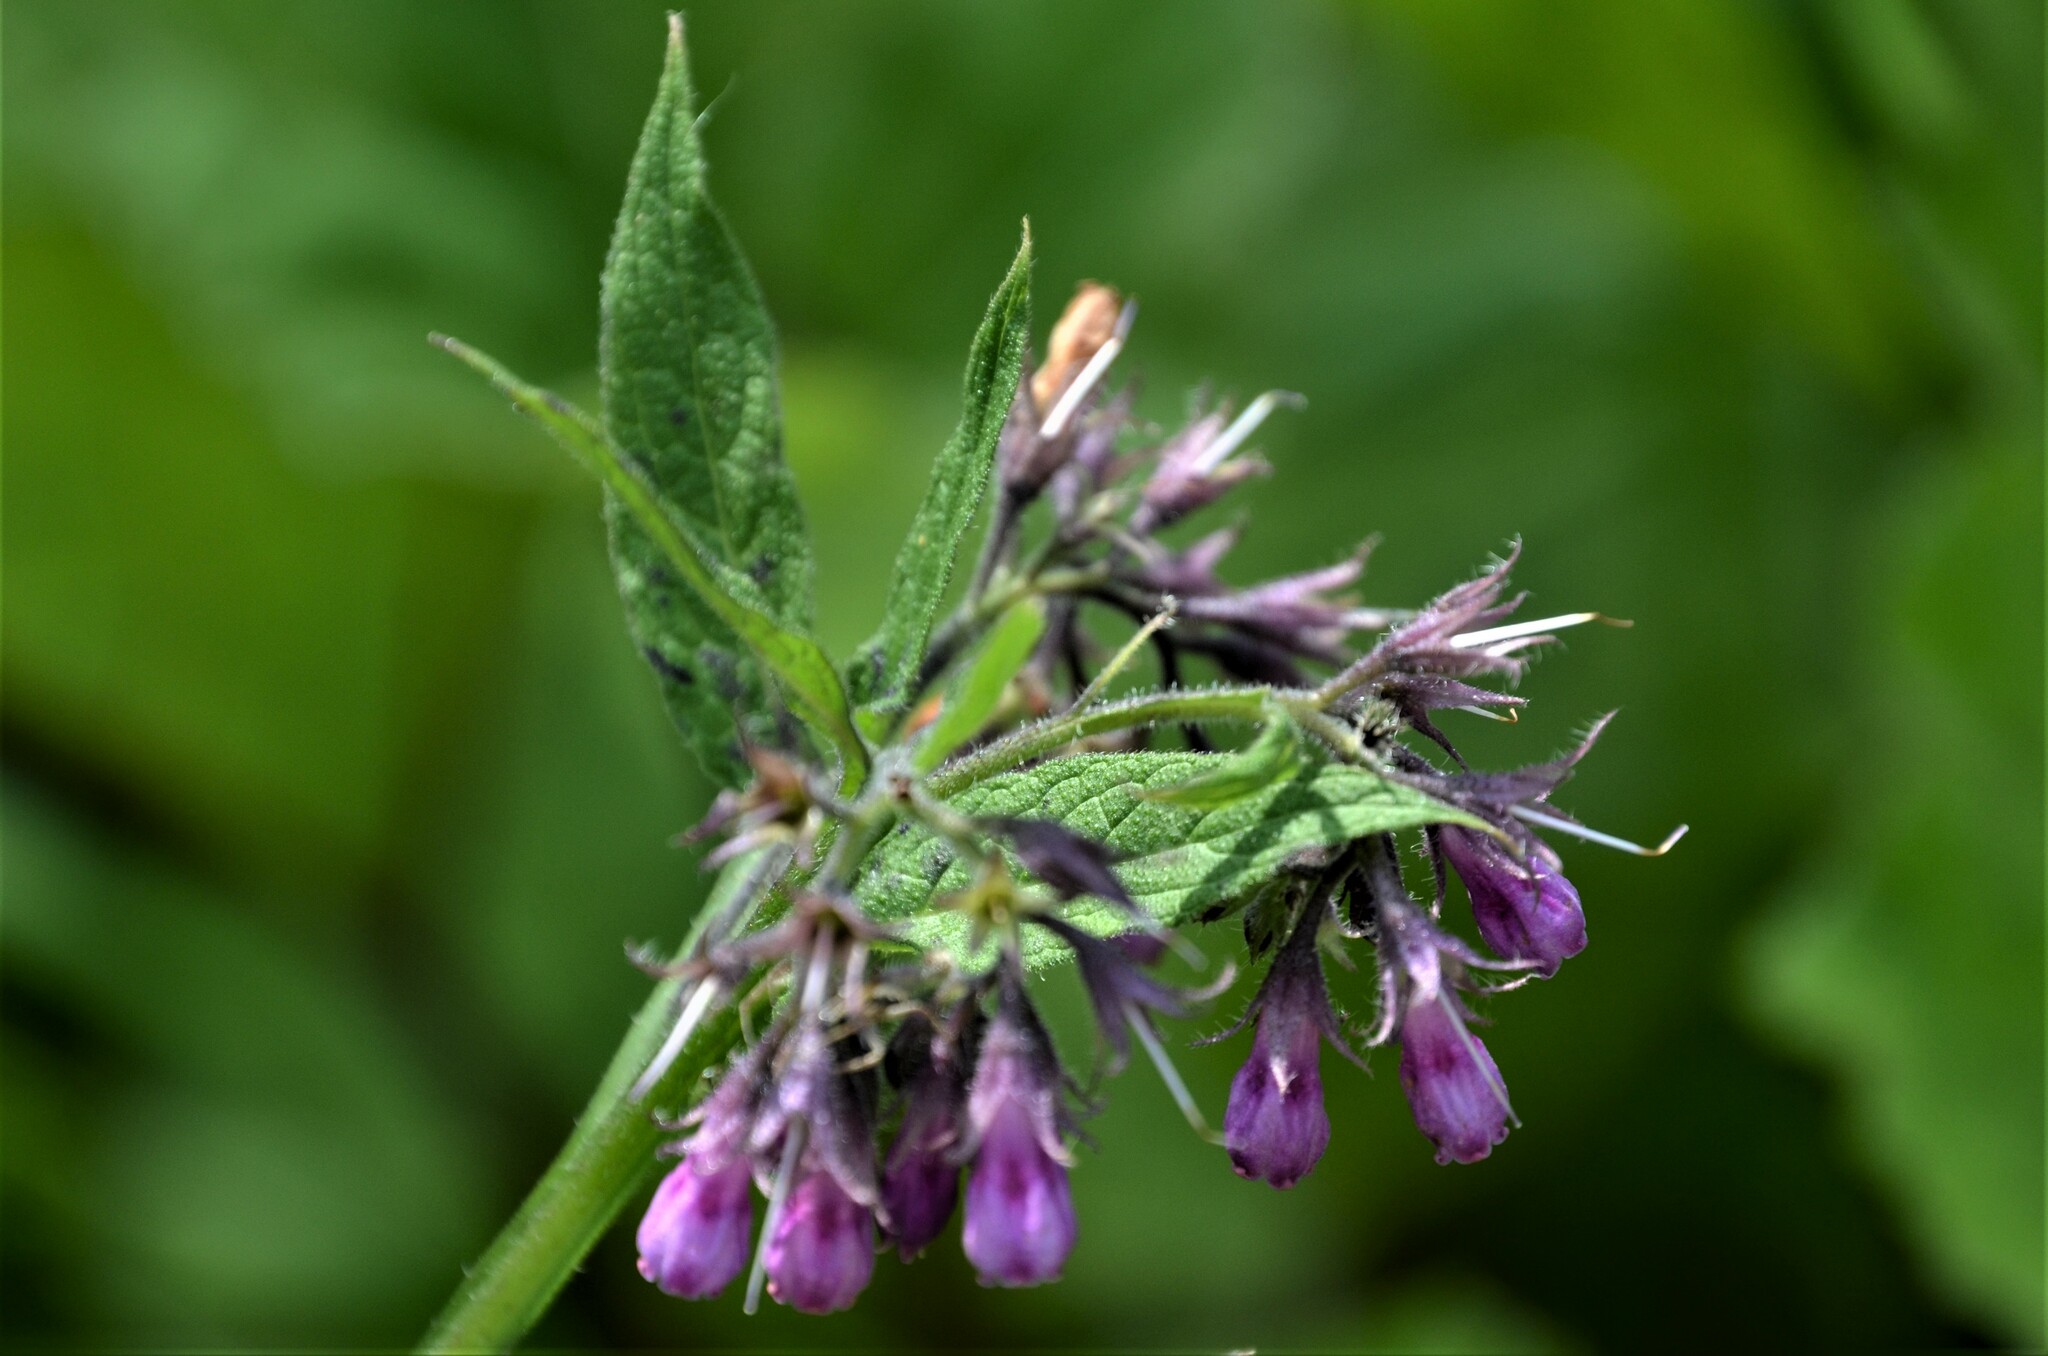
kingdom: Plantae
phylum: Tracheophyta
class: Magnoliopsida
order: Boraginales
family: Boraginaceae
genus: Symphytum
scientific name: Symphytum officinale
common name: Common comfrey
